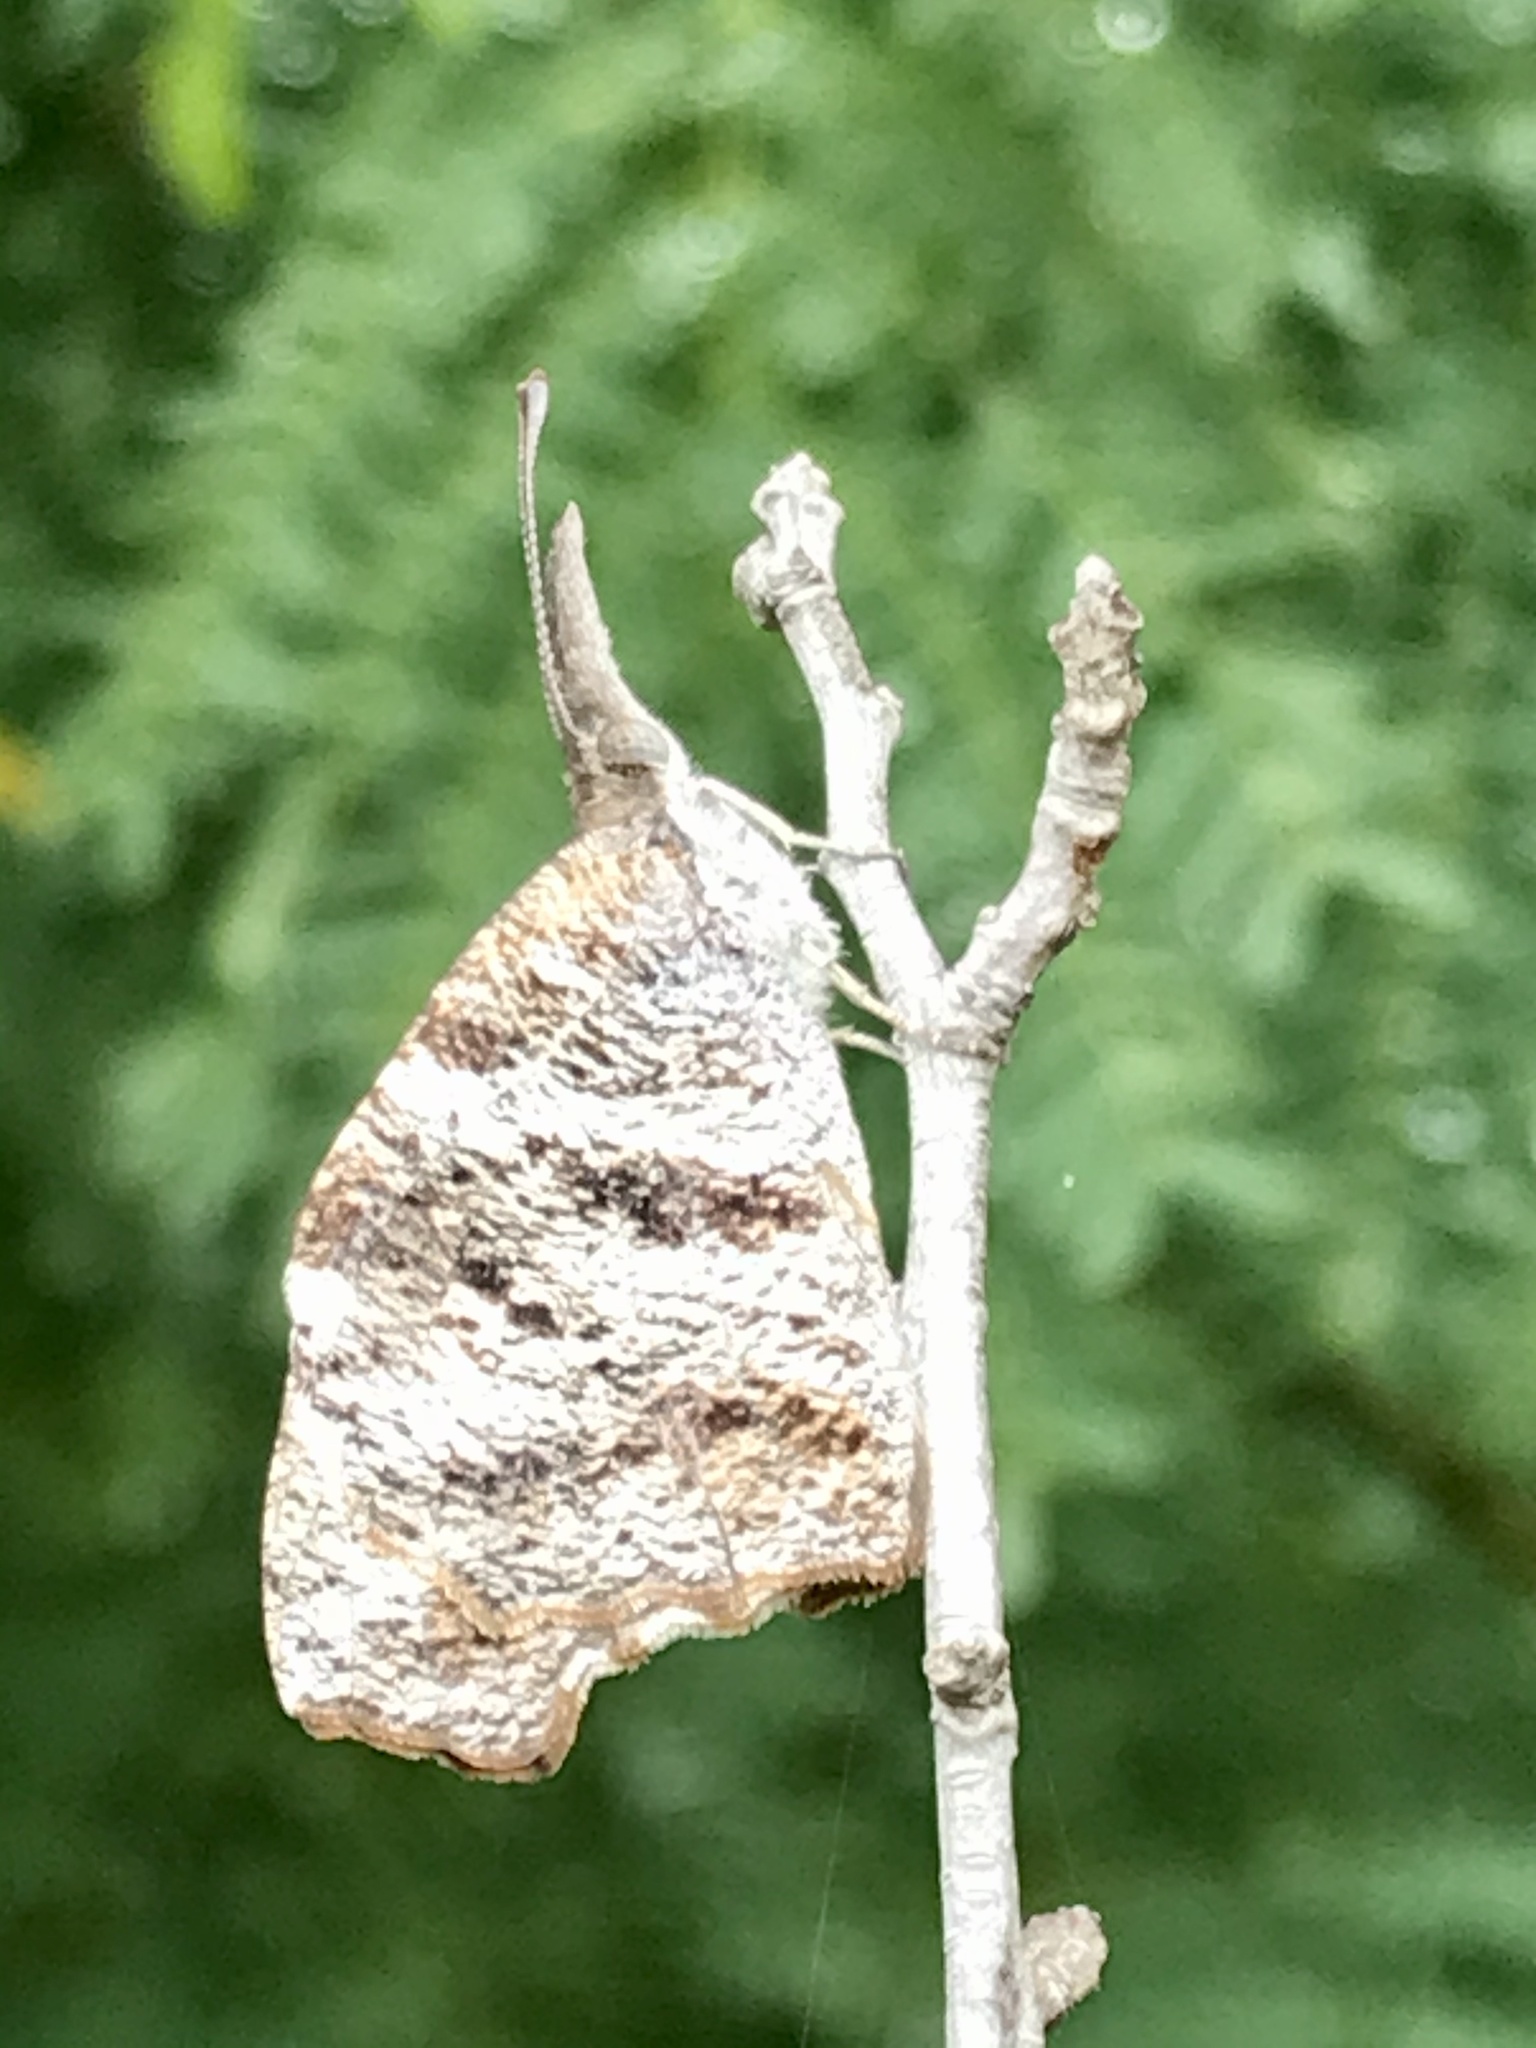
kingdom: Animalia
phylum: Arthropoda
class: Insecta
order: Lepidoptera
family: Nymphalidae
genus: Libytheana
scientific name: Libytheana carinenta
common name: American snout
